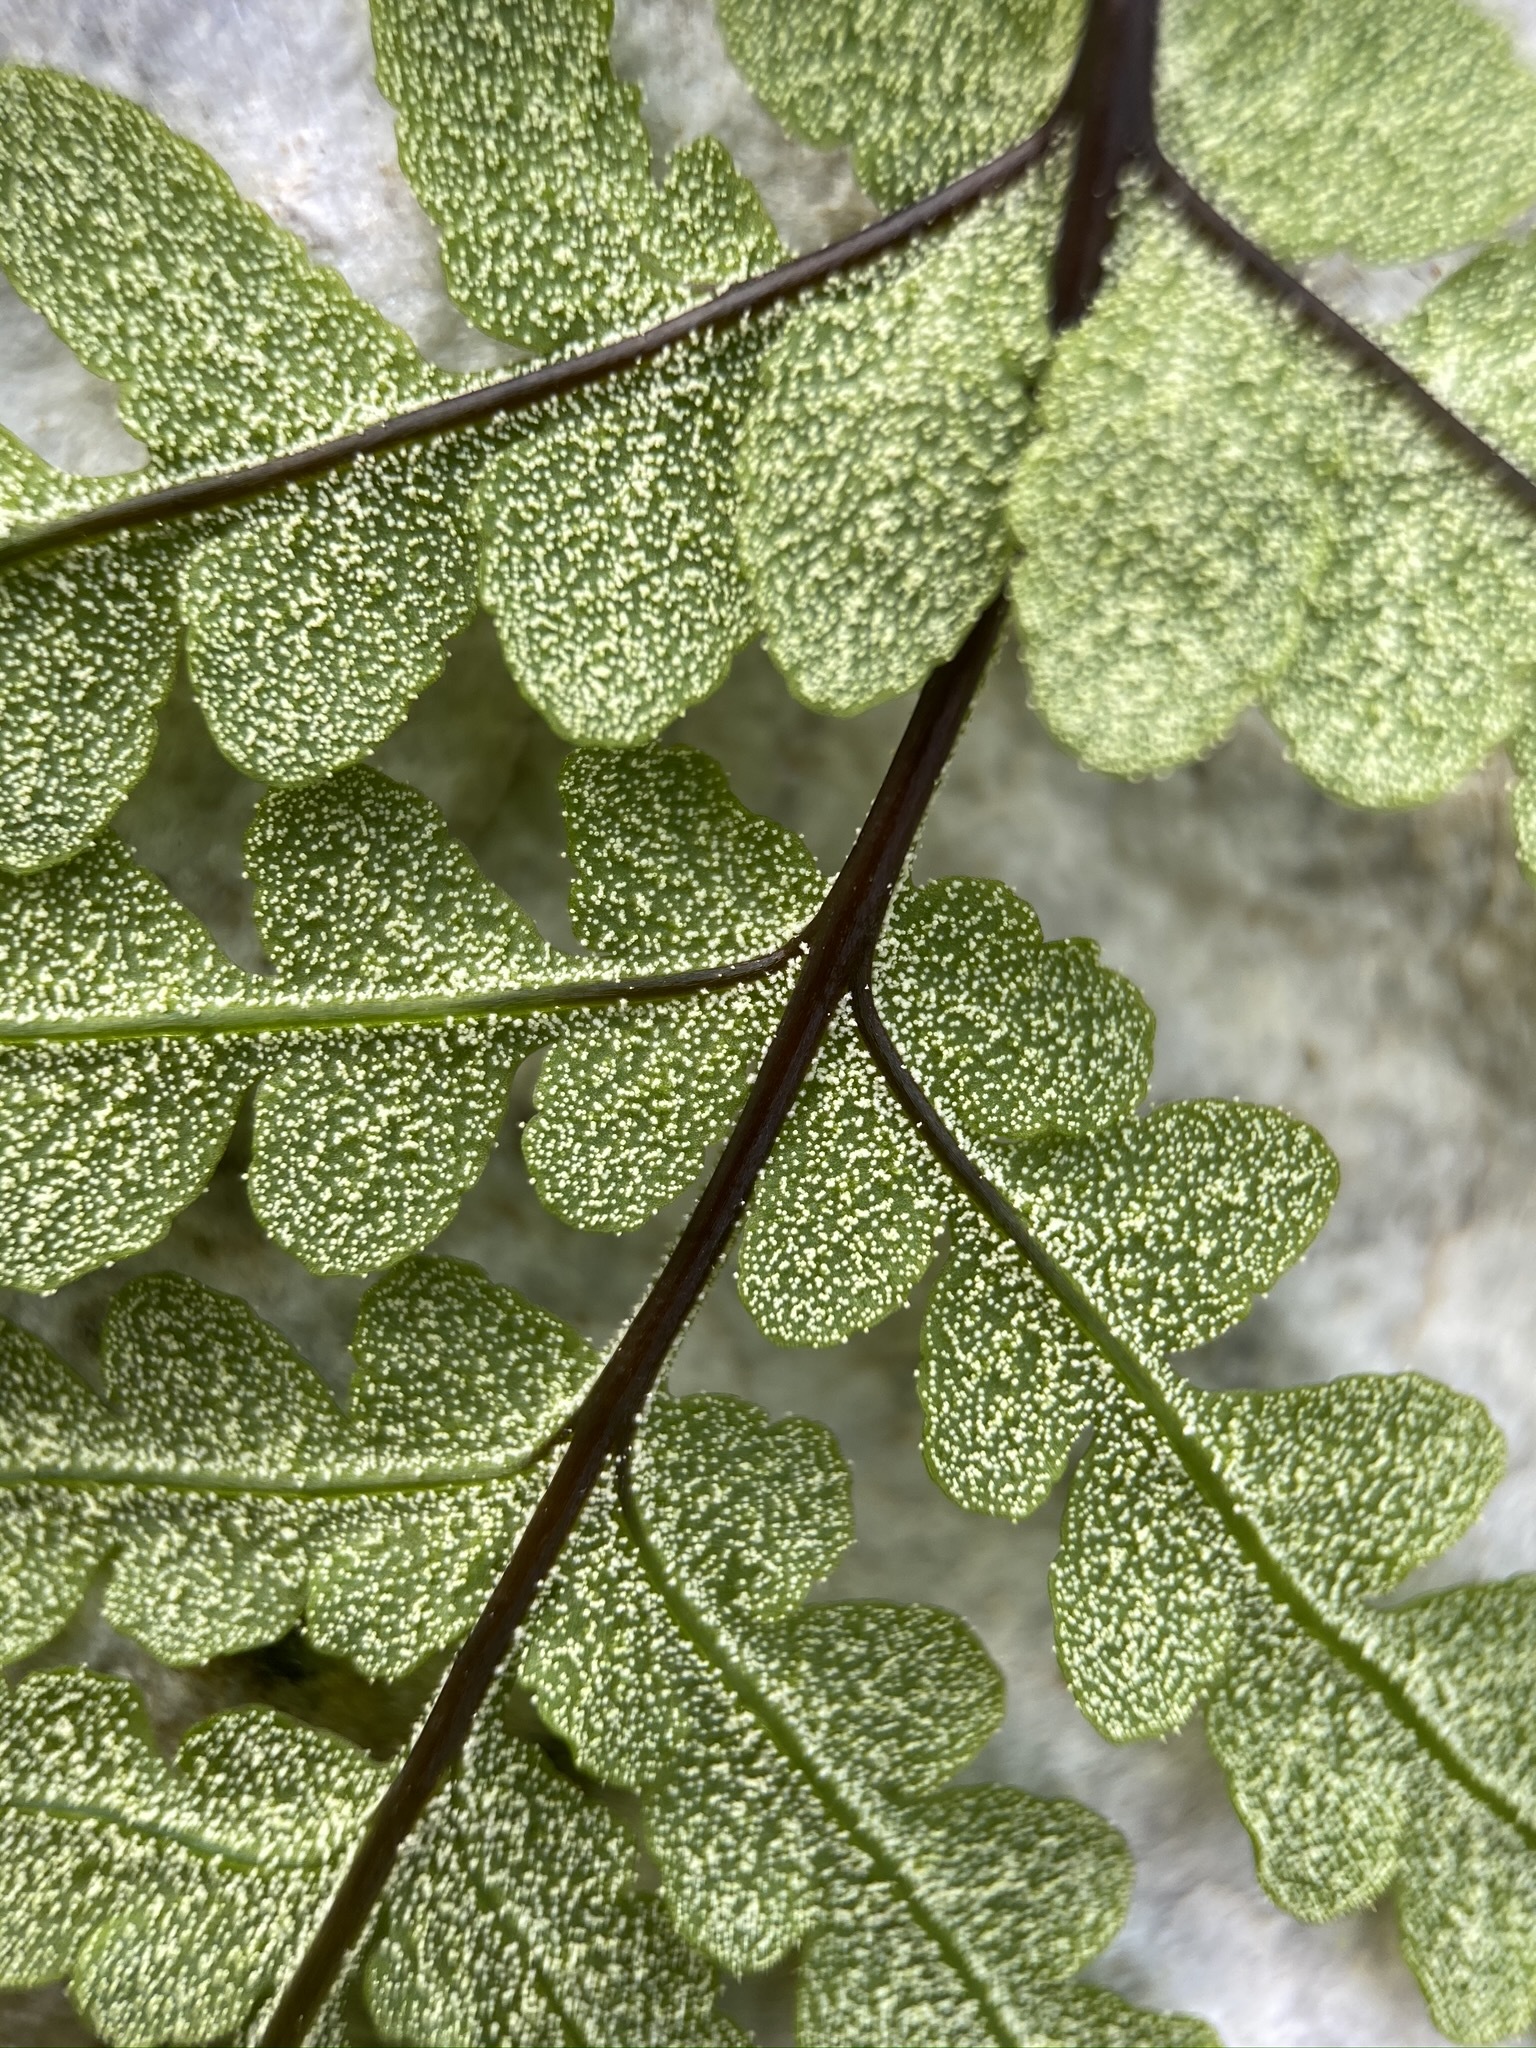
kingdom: Plantae
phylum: Tracheophyta
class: Polypodiopsida
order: Polypodiales
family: Pteridaceae
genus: Pentagramma
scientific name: Pentagramma maxonii
